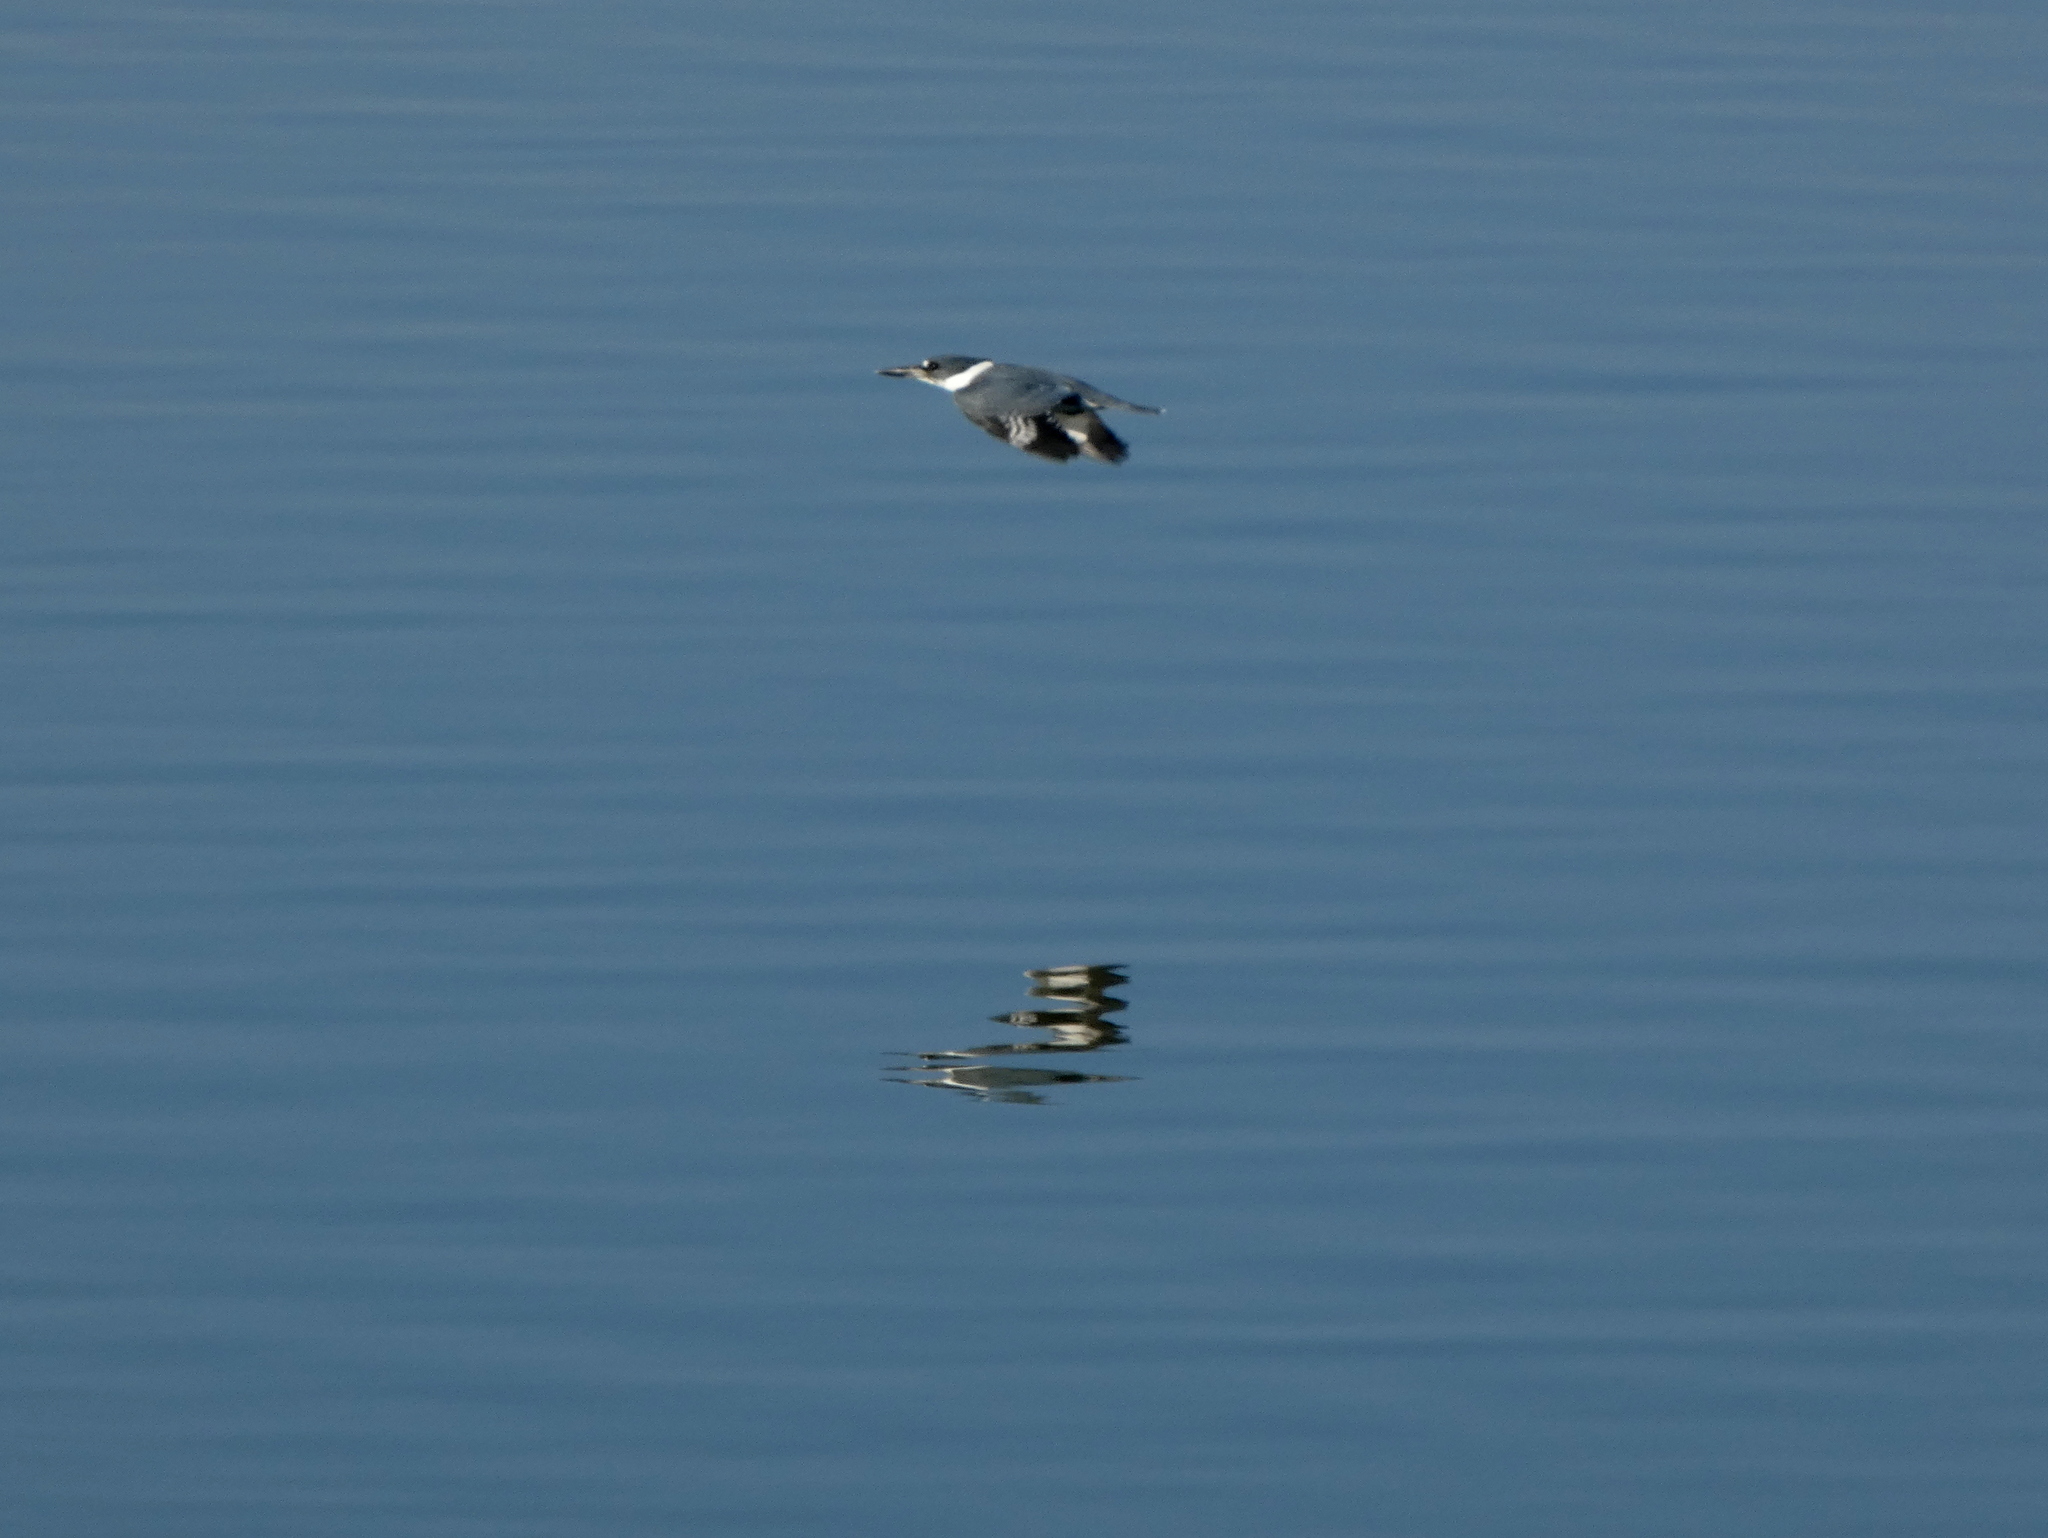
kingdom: Animalia
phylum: Chordata
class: Aves
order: Coraciiformes
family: Alcedinidae
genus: Megaceryle
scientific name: Megaceryle alcyon
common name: Belted kingfisher
